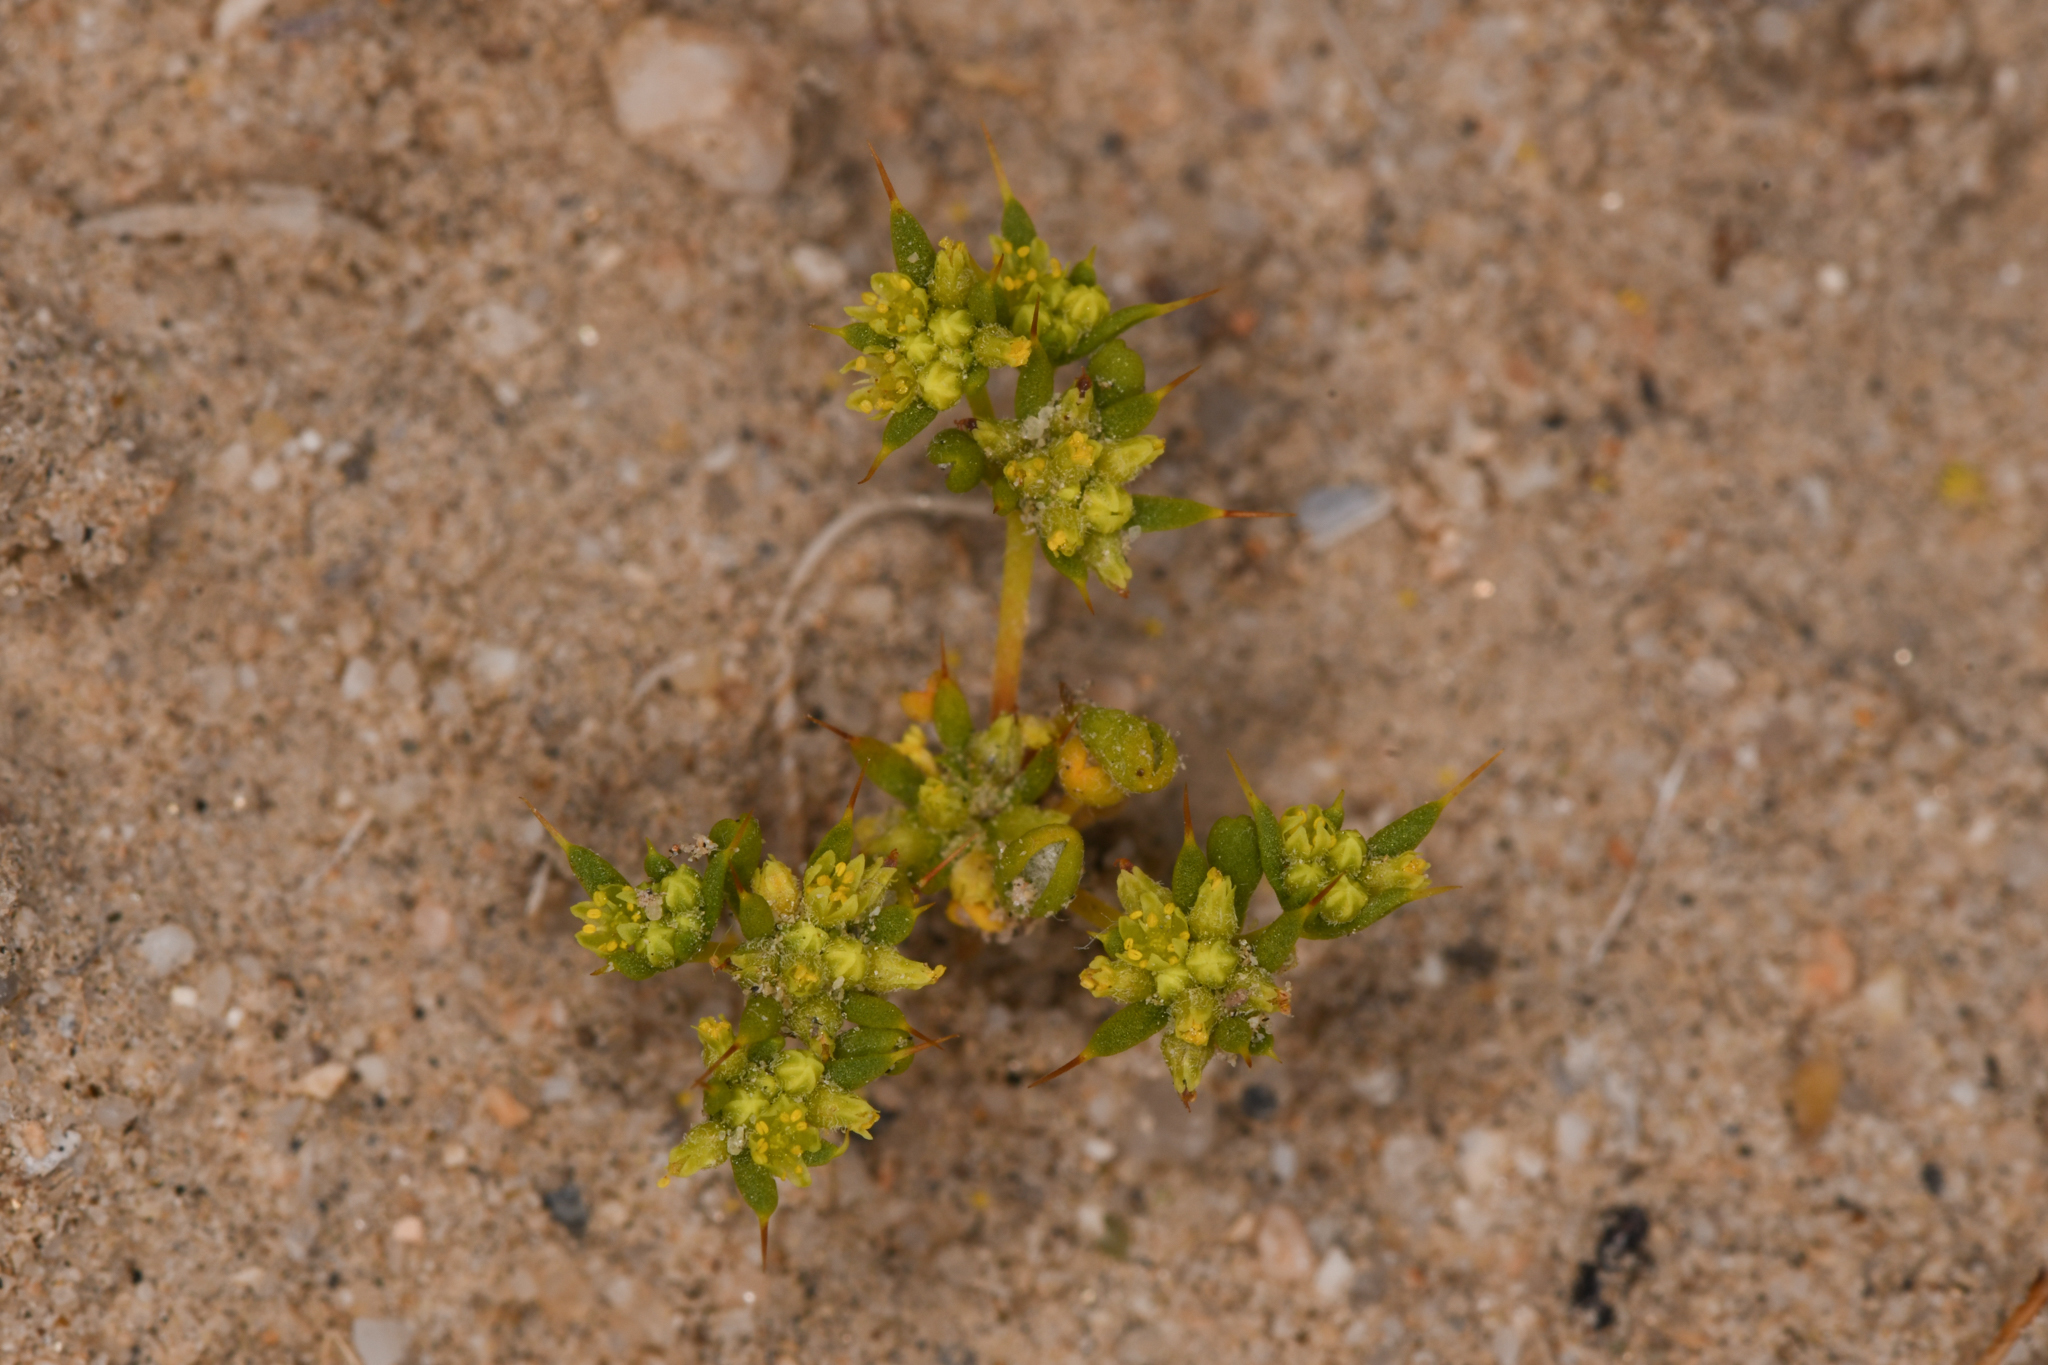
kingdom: Plantae
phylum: Tracheophyta
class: Magnoliopsida
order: Caryophyllales
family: Polygonaceae
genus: Goodmania
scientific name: Goodmania luteola
